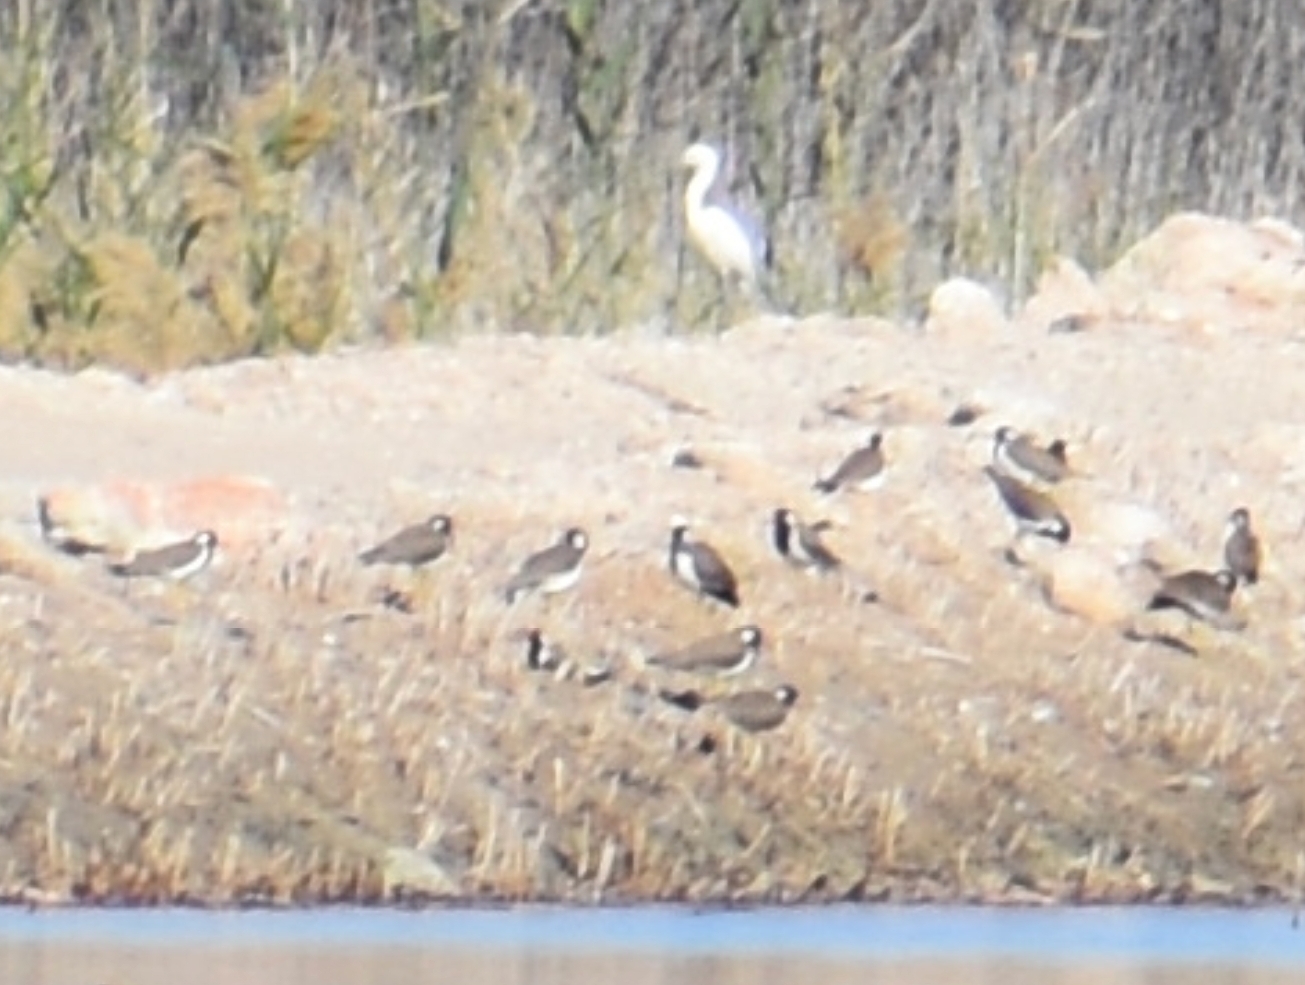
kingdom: Animalia
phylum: Chordata
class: Aves
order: Charadriiformes
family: Charadriidae
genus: Vanellus
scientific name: Vanellus indicus
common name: Red-wattled lapwing
